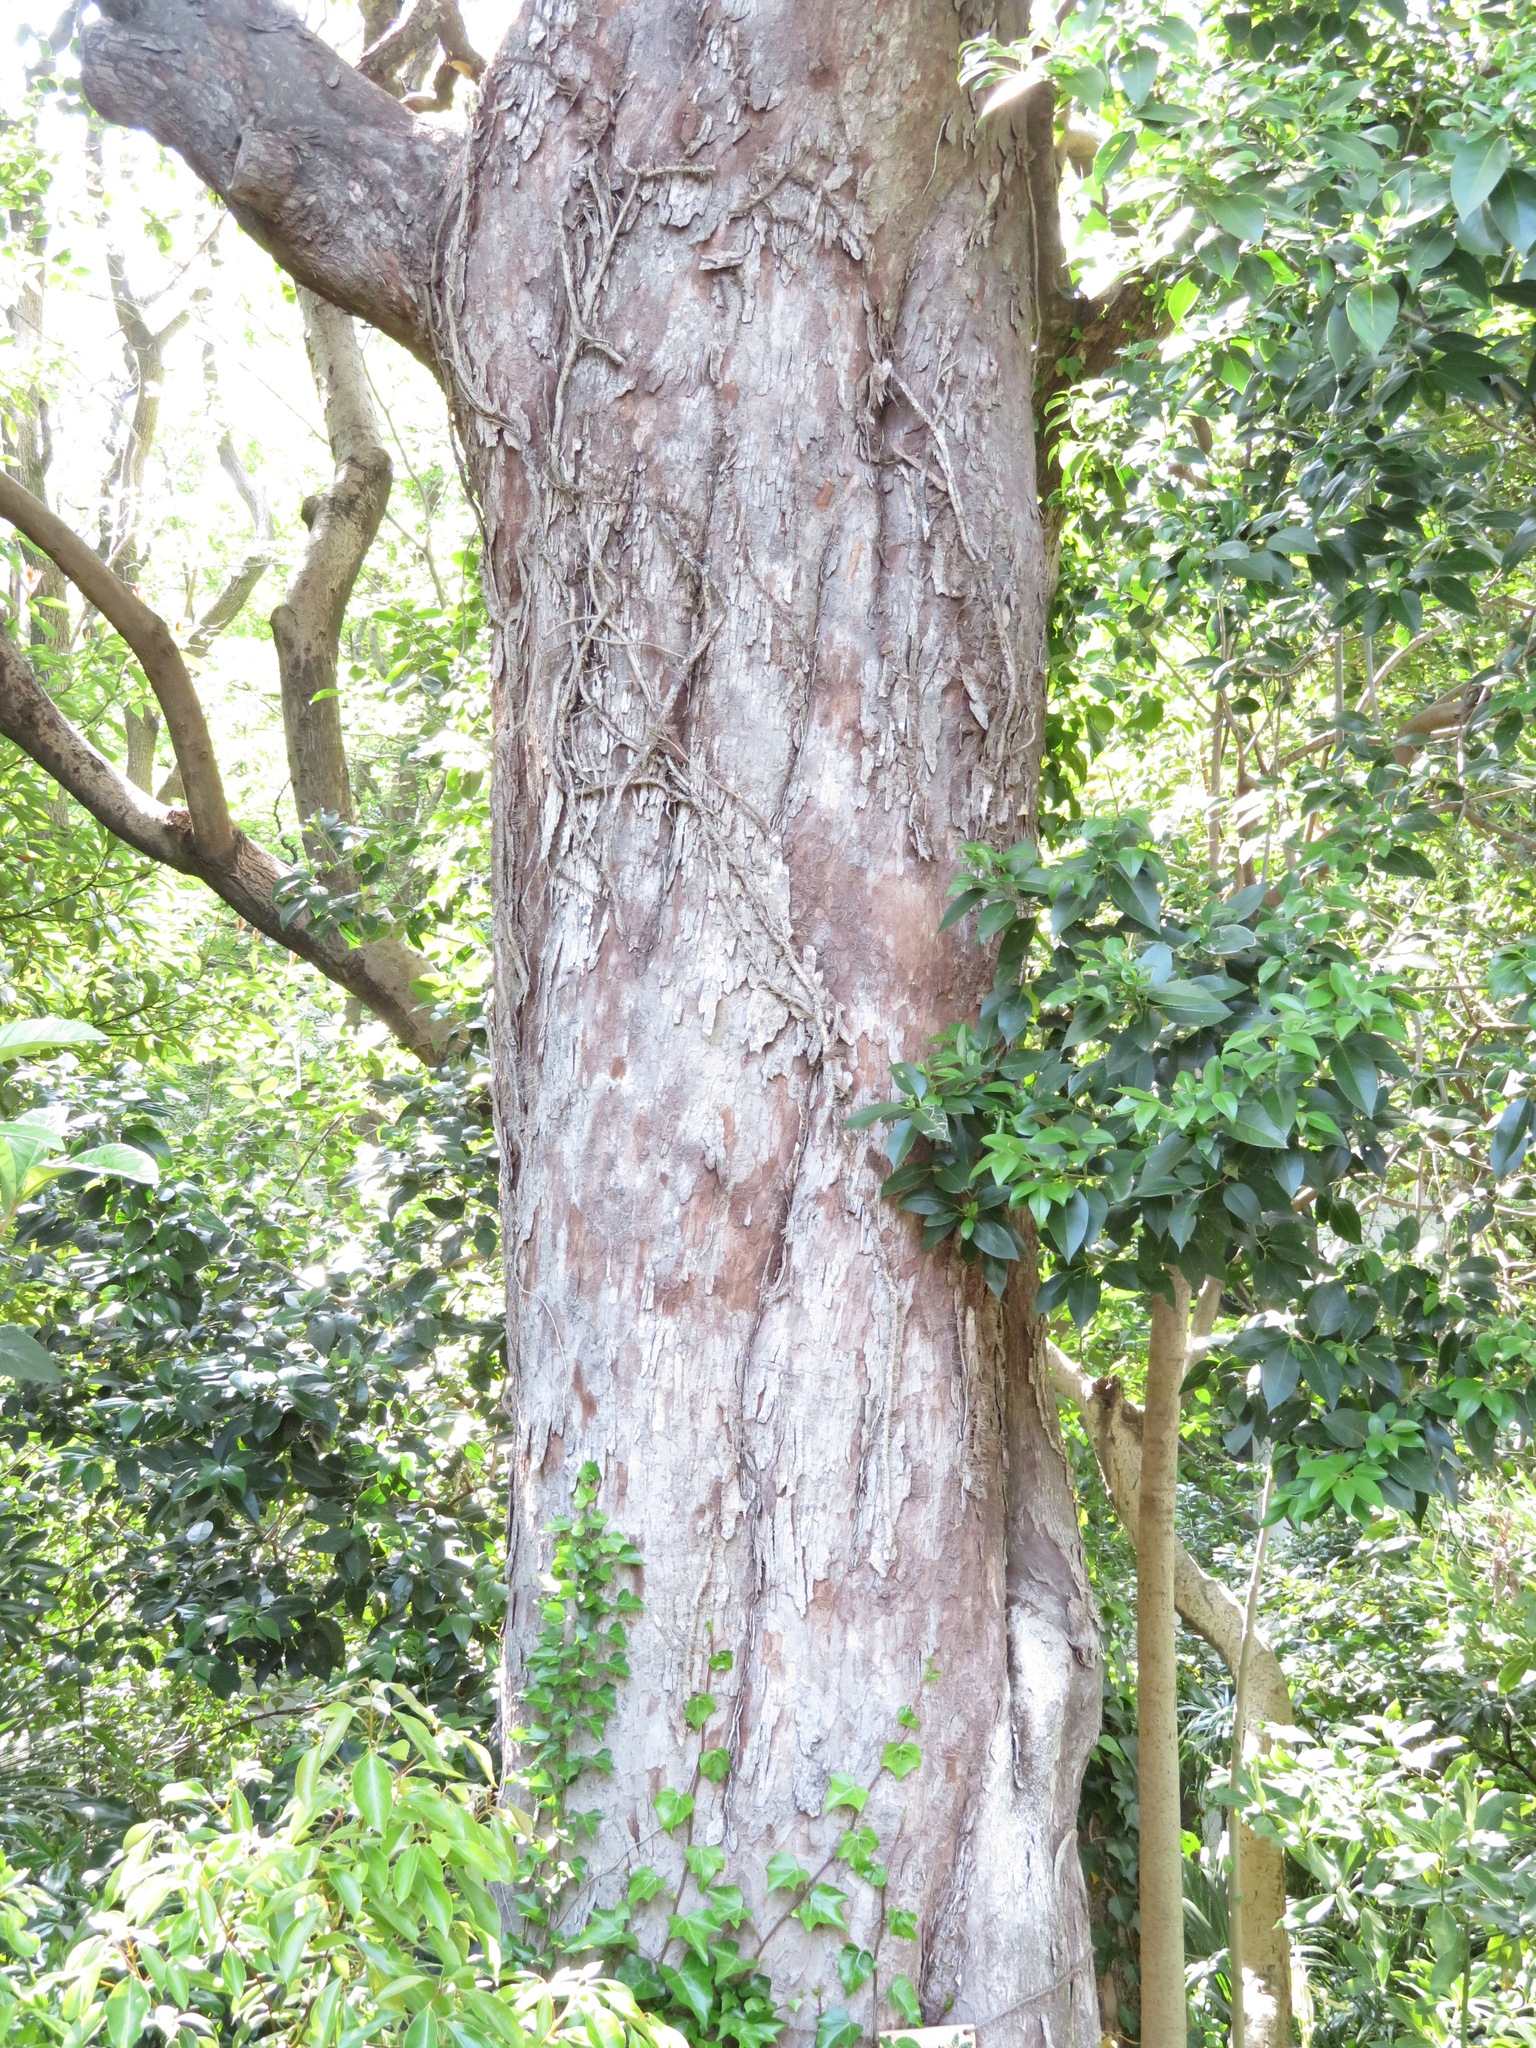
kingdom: Plantae
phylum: Tracheophyta
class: Magnoliopsida
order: Rosales
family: Cannabaceae
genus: Aphananthe
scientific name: Aphananthe aspera
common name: Mukutree
